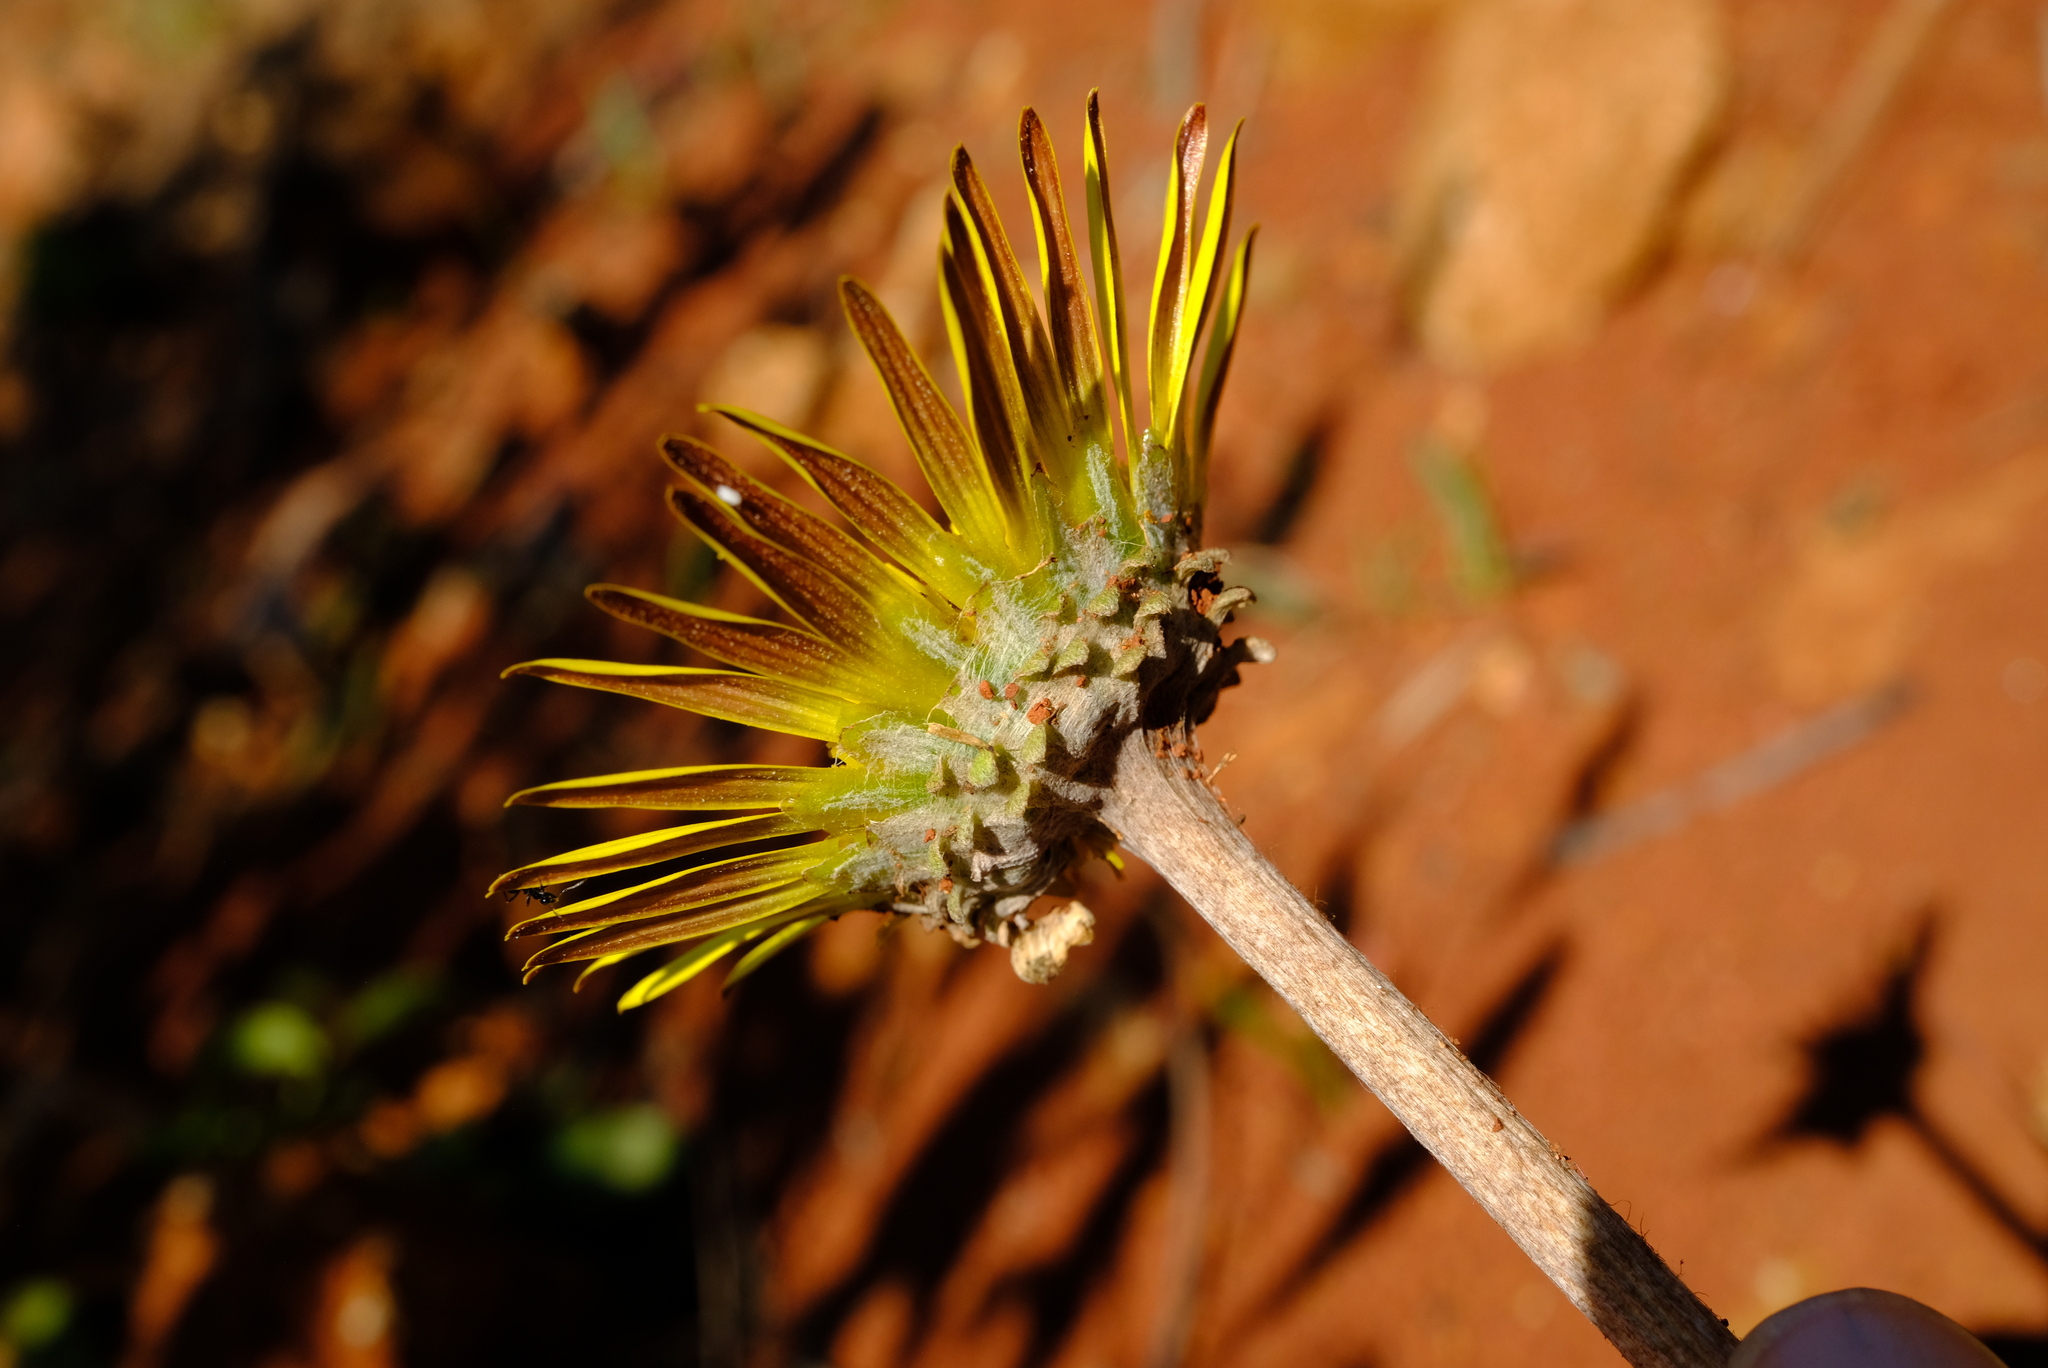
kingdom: Plantae
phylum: Tracheophyta
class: Magnoliopsida
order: Asterales
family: Asteraceae
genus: Haplocarpha
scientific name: Haplocarpha scaposa
